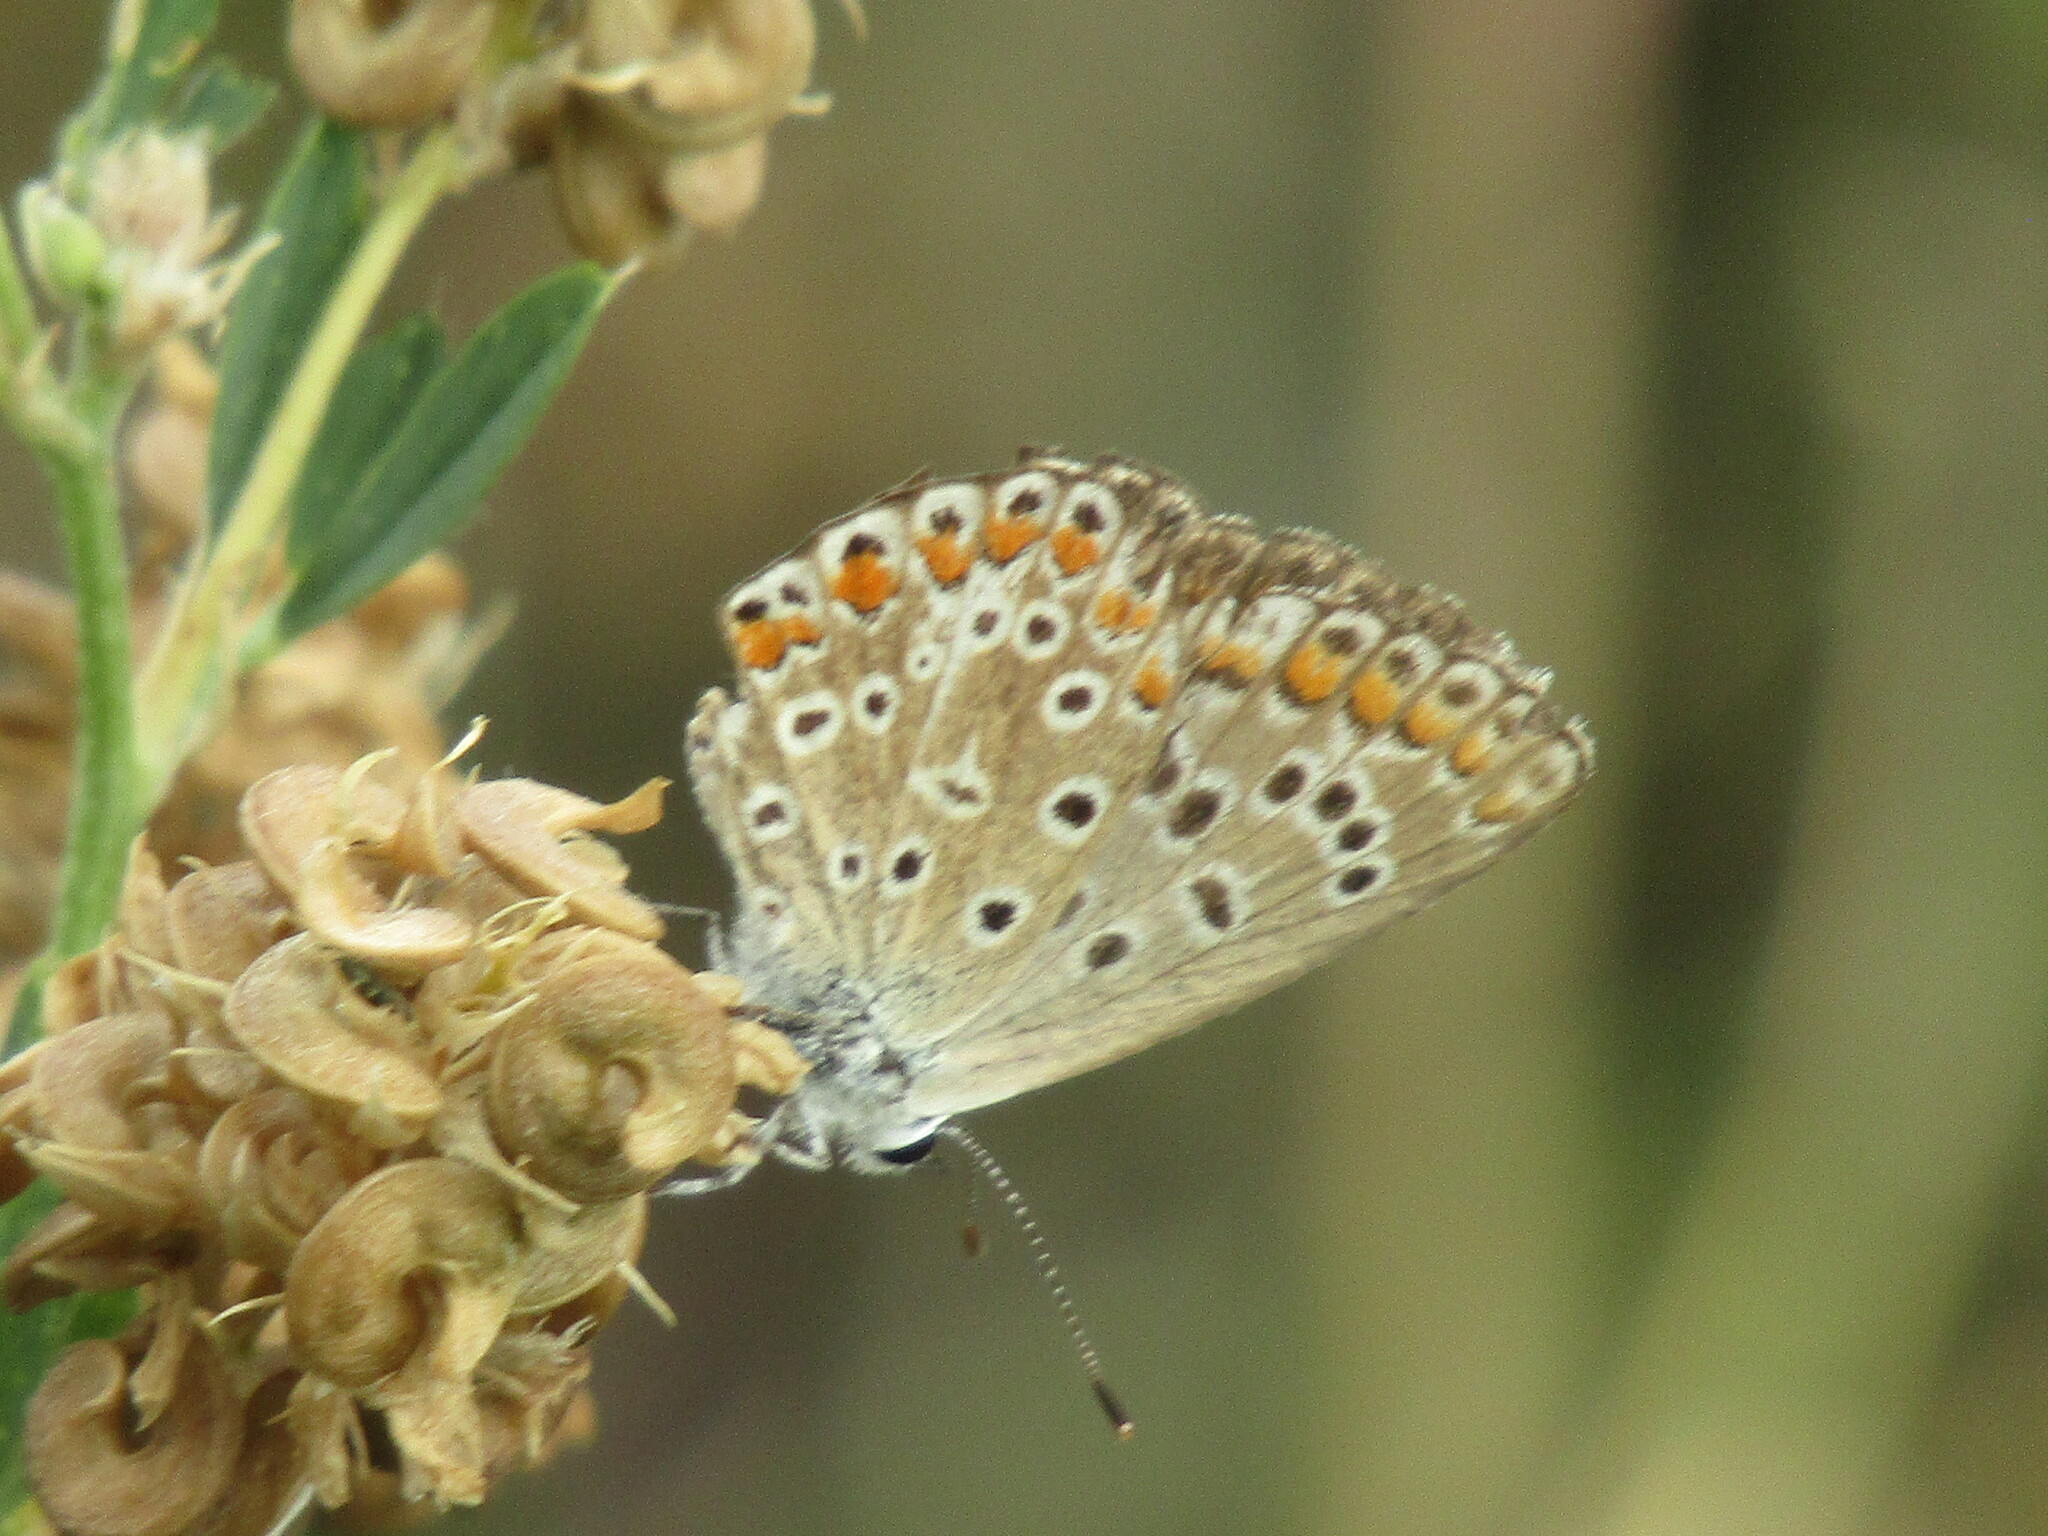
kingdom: Animalia
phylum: Arthropoda
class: Insecta
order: Lepidoptera
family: Lycaenidae
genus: Polyommatus
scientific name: Polyommatus icarus
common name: Common blue
